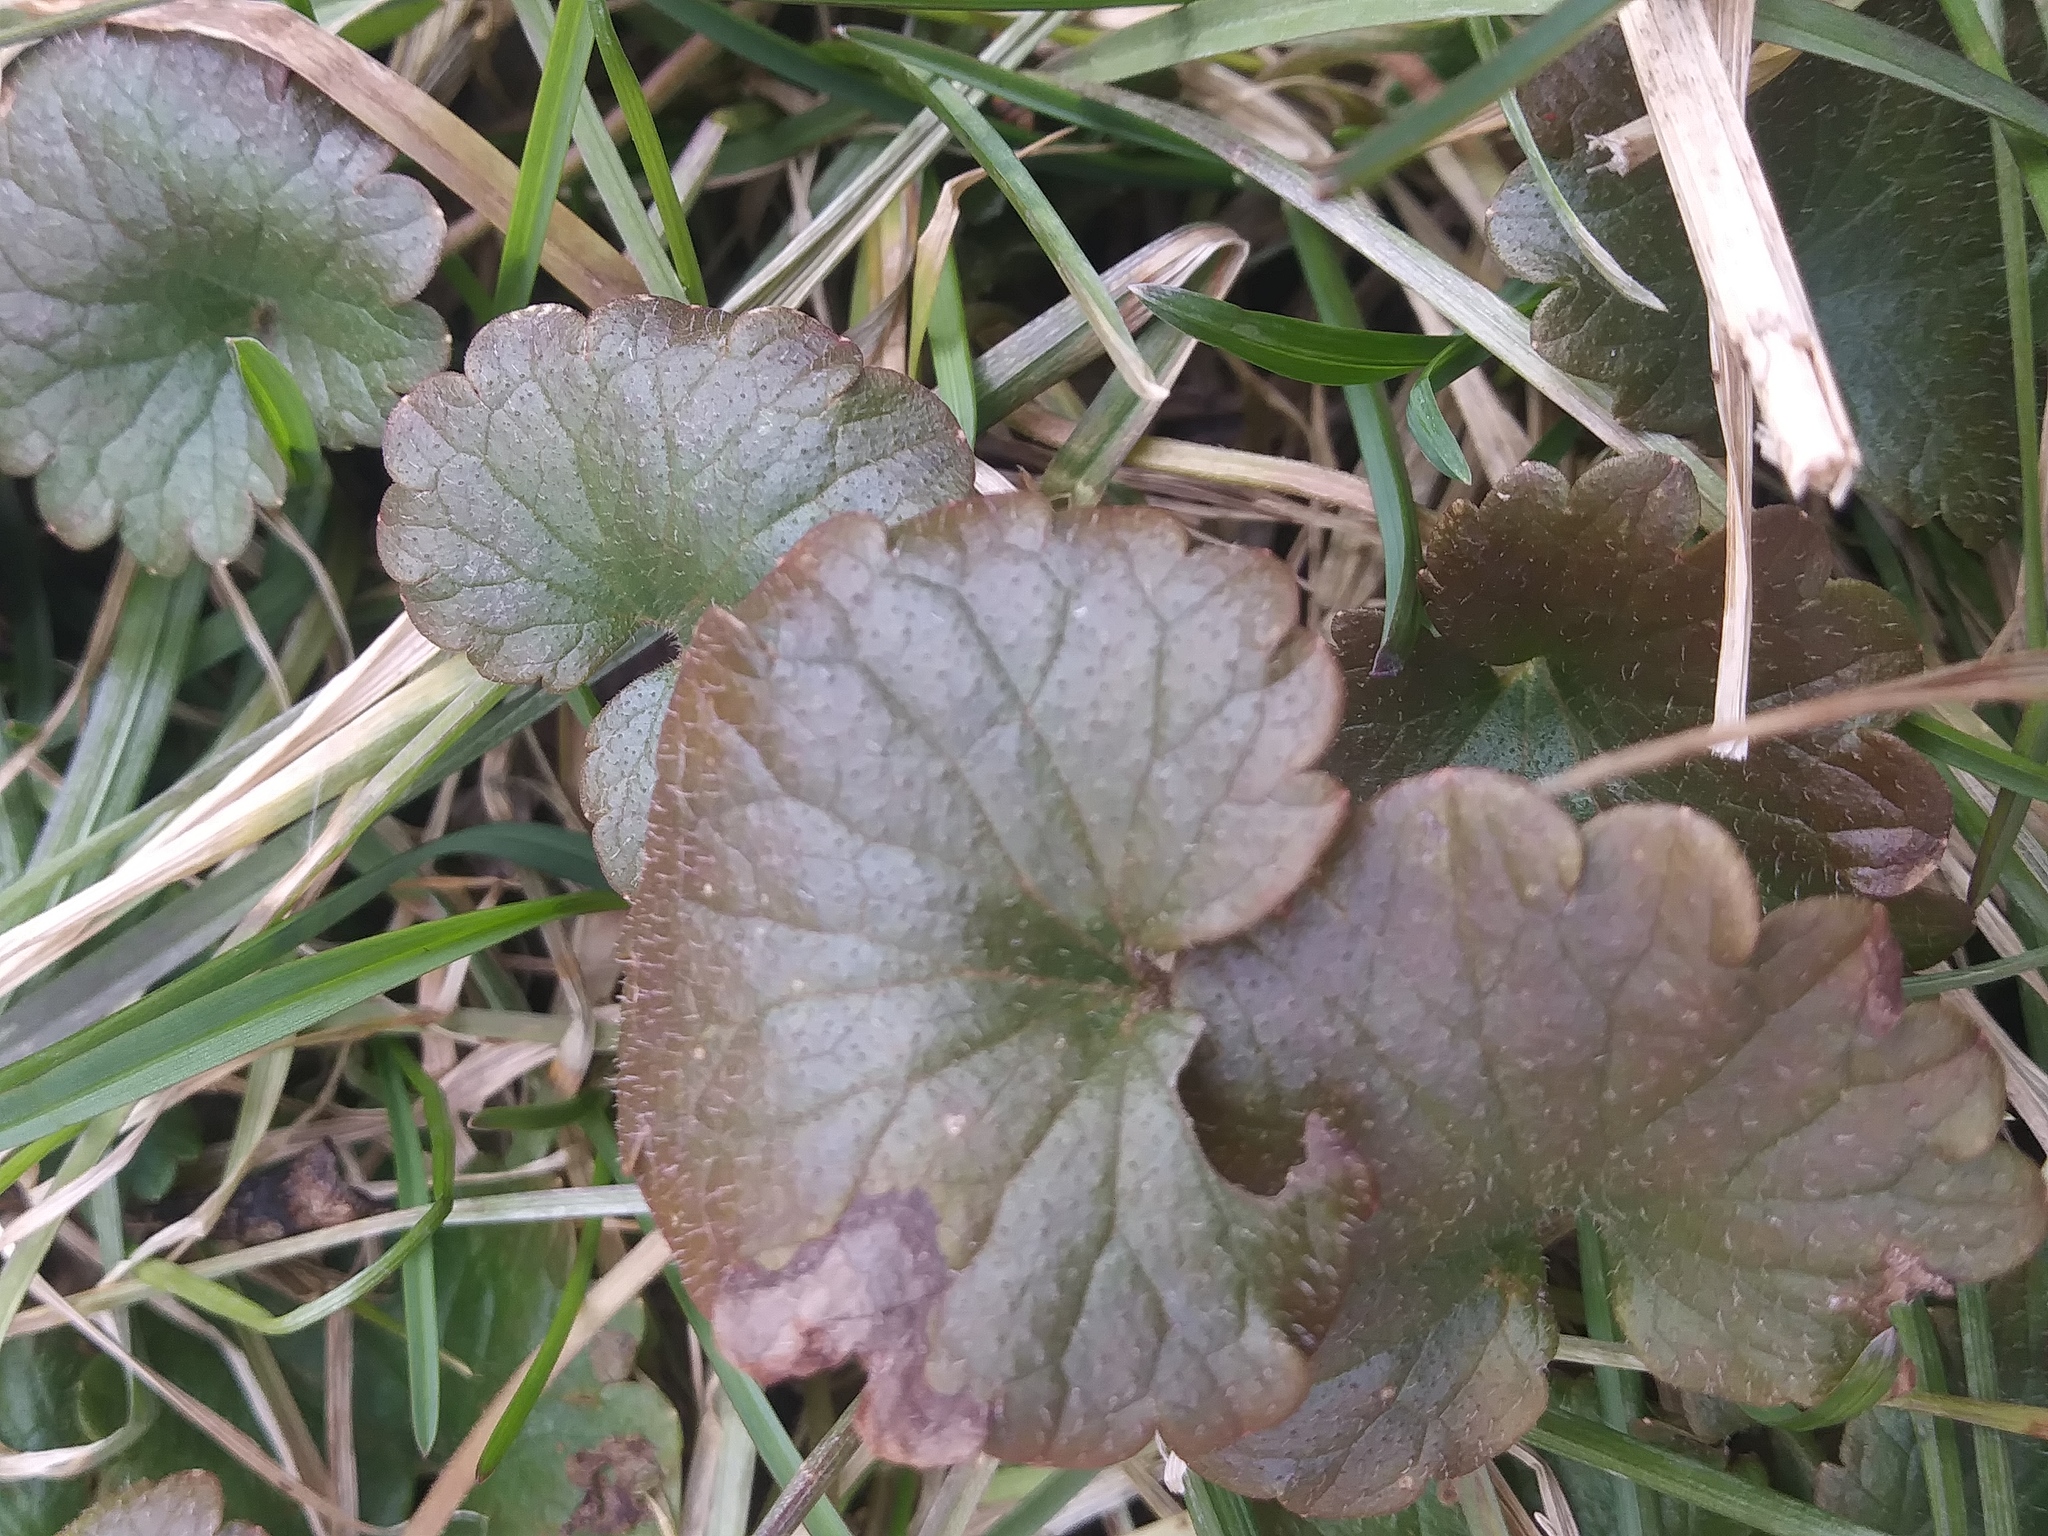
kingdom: Plantae
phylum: Tracheophyta
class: Magnoliopsida
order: Lamiales
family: Lamiaceae
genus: Glechoma
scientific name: Glechoma hederacea
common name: Ground ivy
